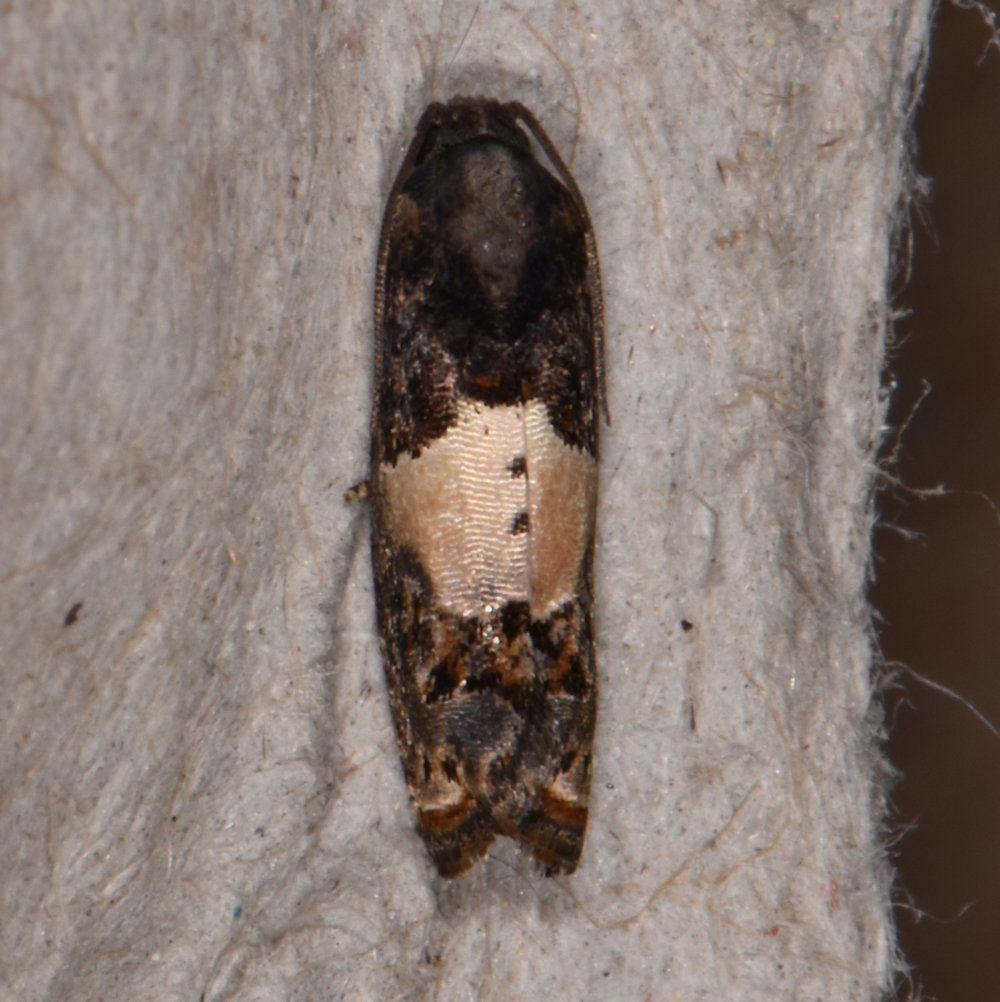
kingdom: Animalia
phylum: Arthropoda
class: Insecta
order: Lepidoptera
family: Tortricidae
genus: Epiblema
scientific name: Epiblema glenni
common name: Glenn's epiblema
